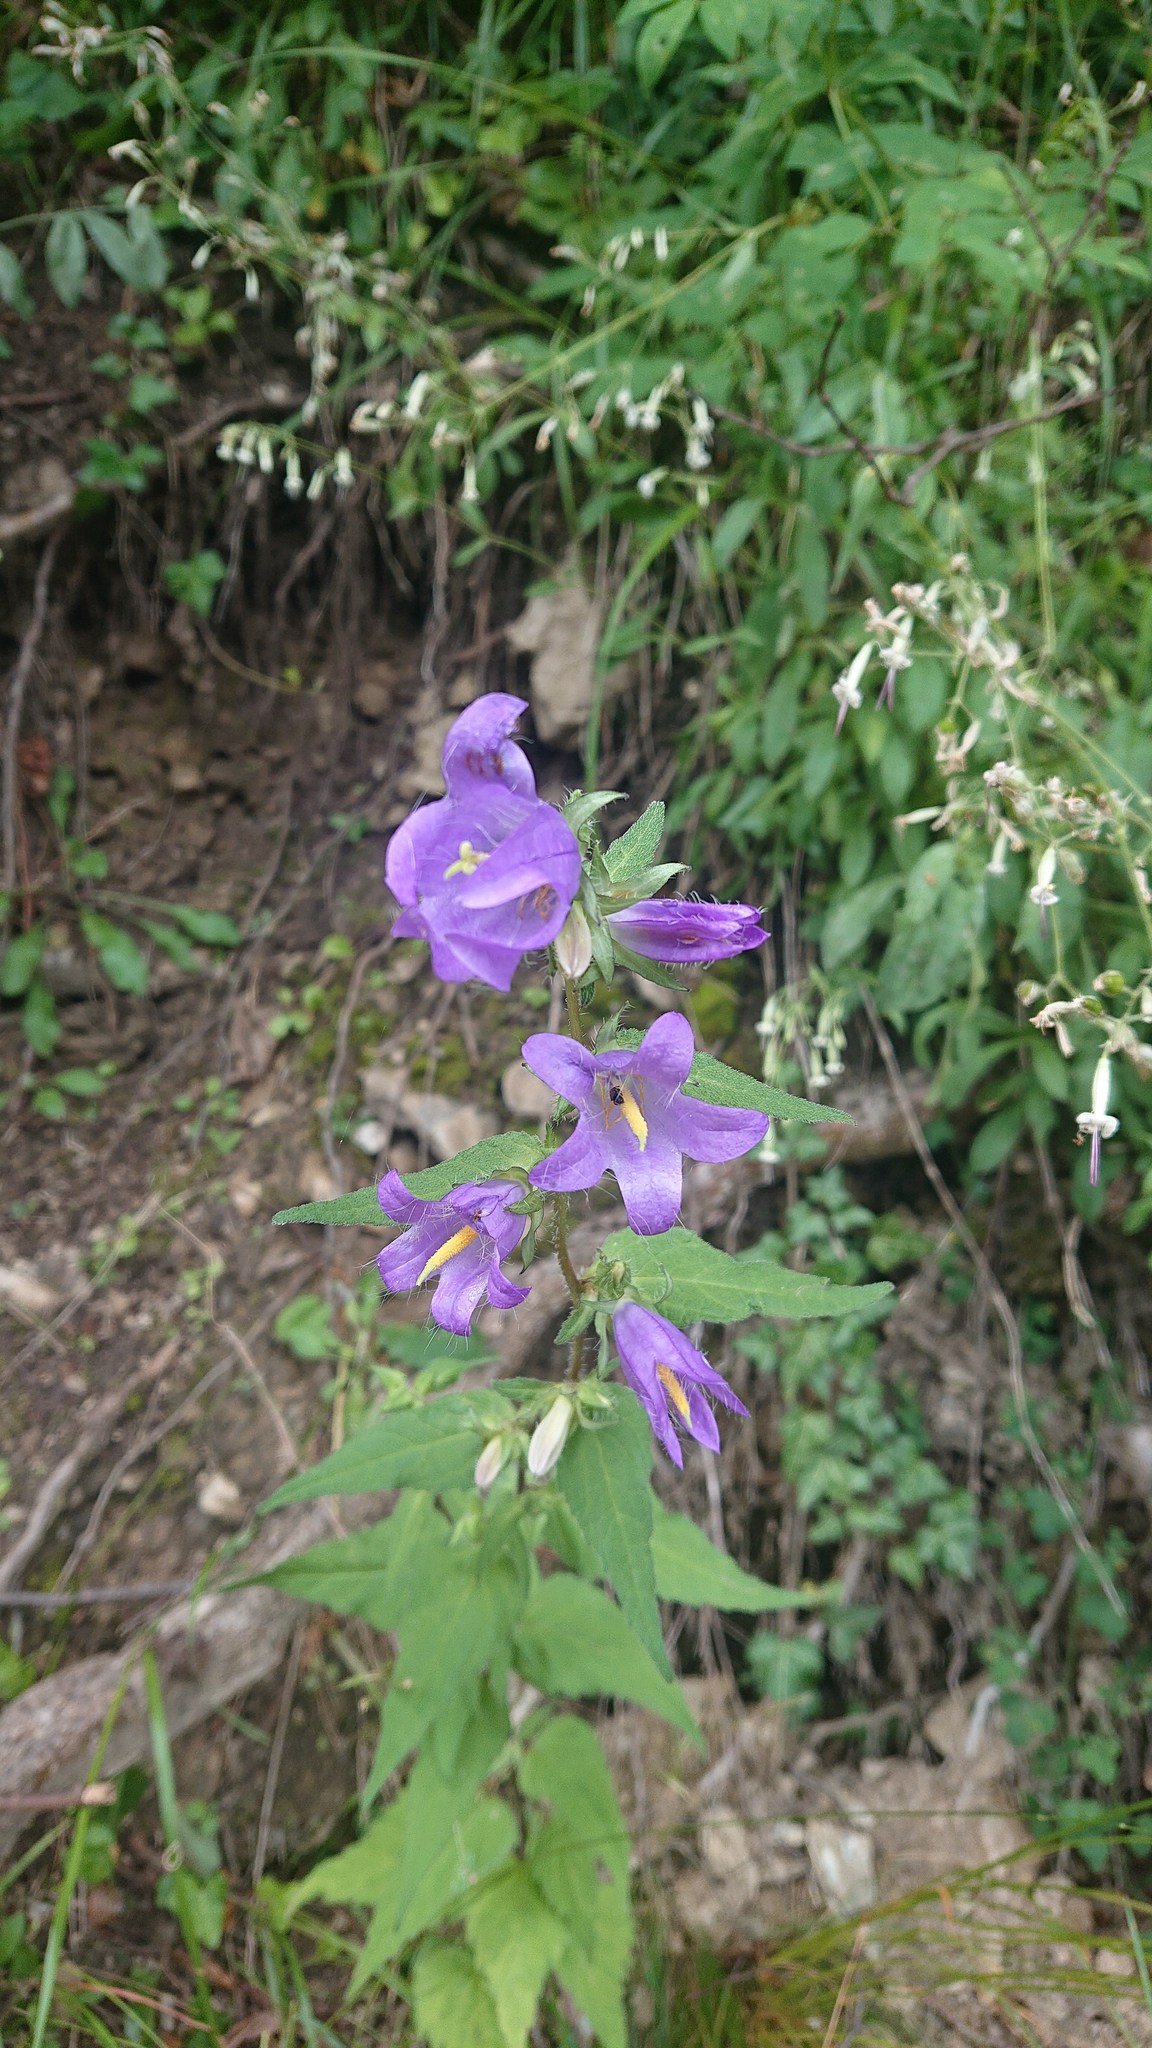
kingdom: Plantae
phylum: Tracheophyta
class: Magnoliopsida
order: Asterales
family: Campanulaceae
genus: Campanula
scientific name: Campanula trachelium
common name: Nettle-leaved bellflower
